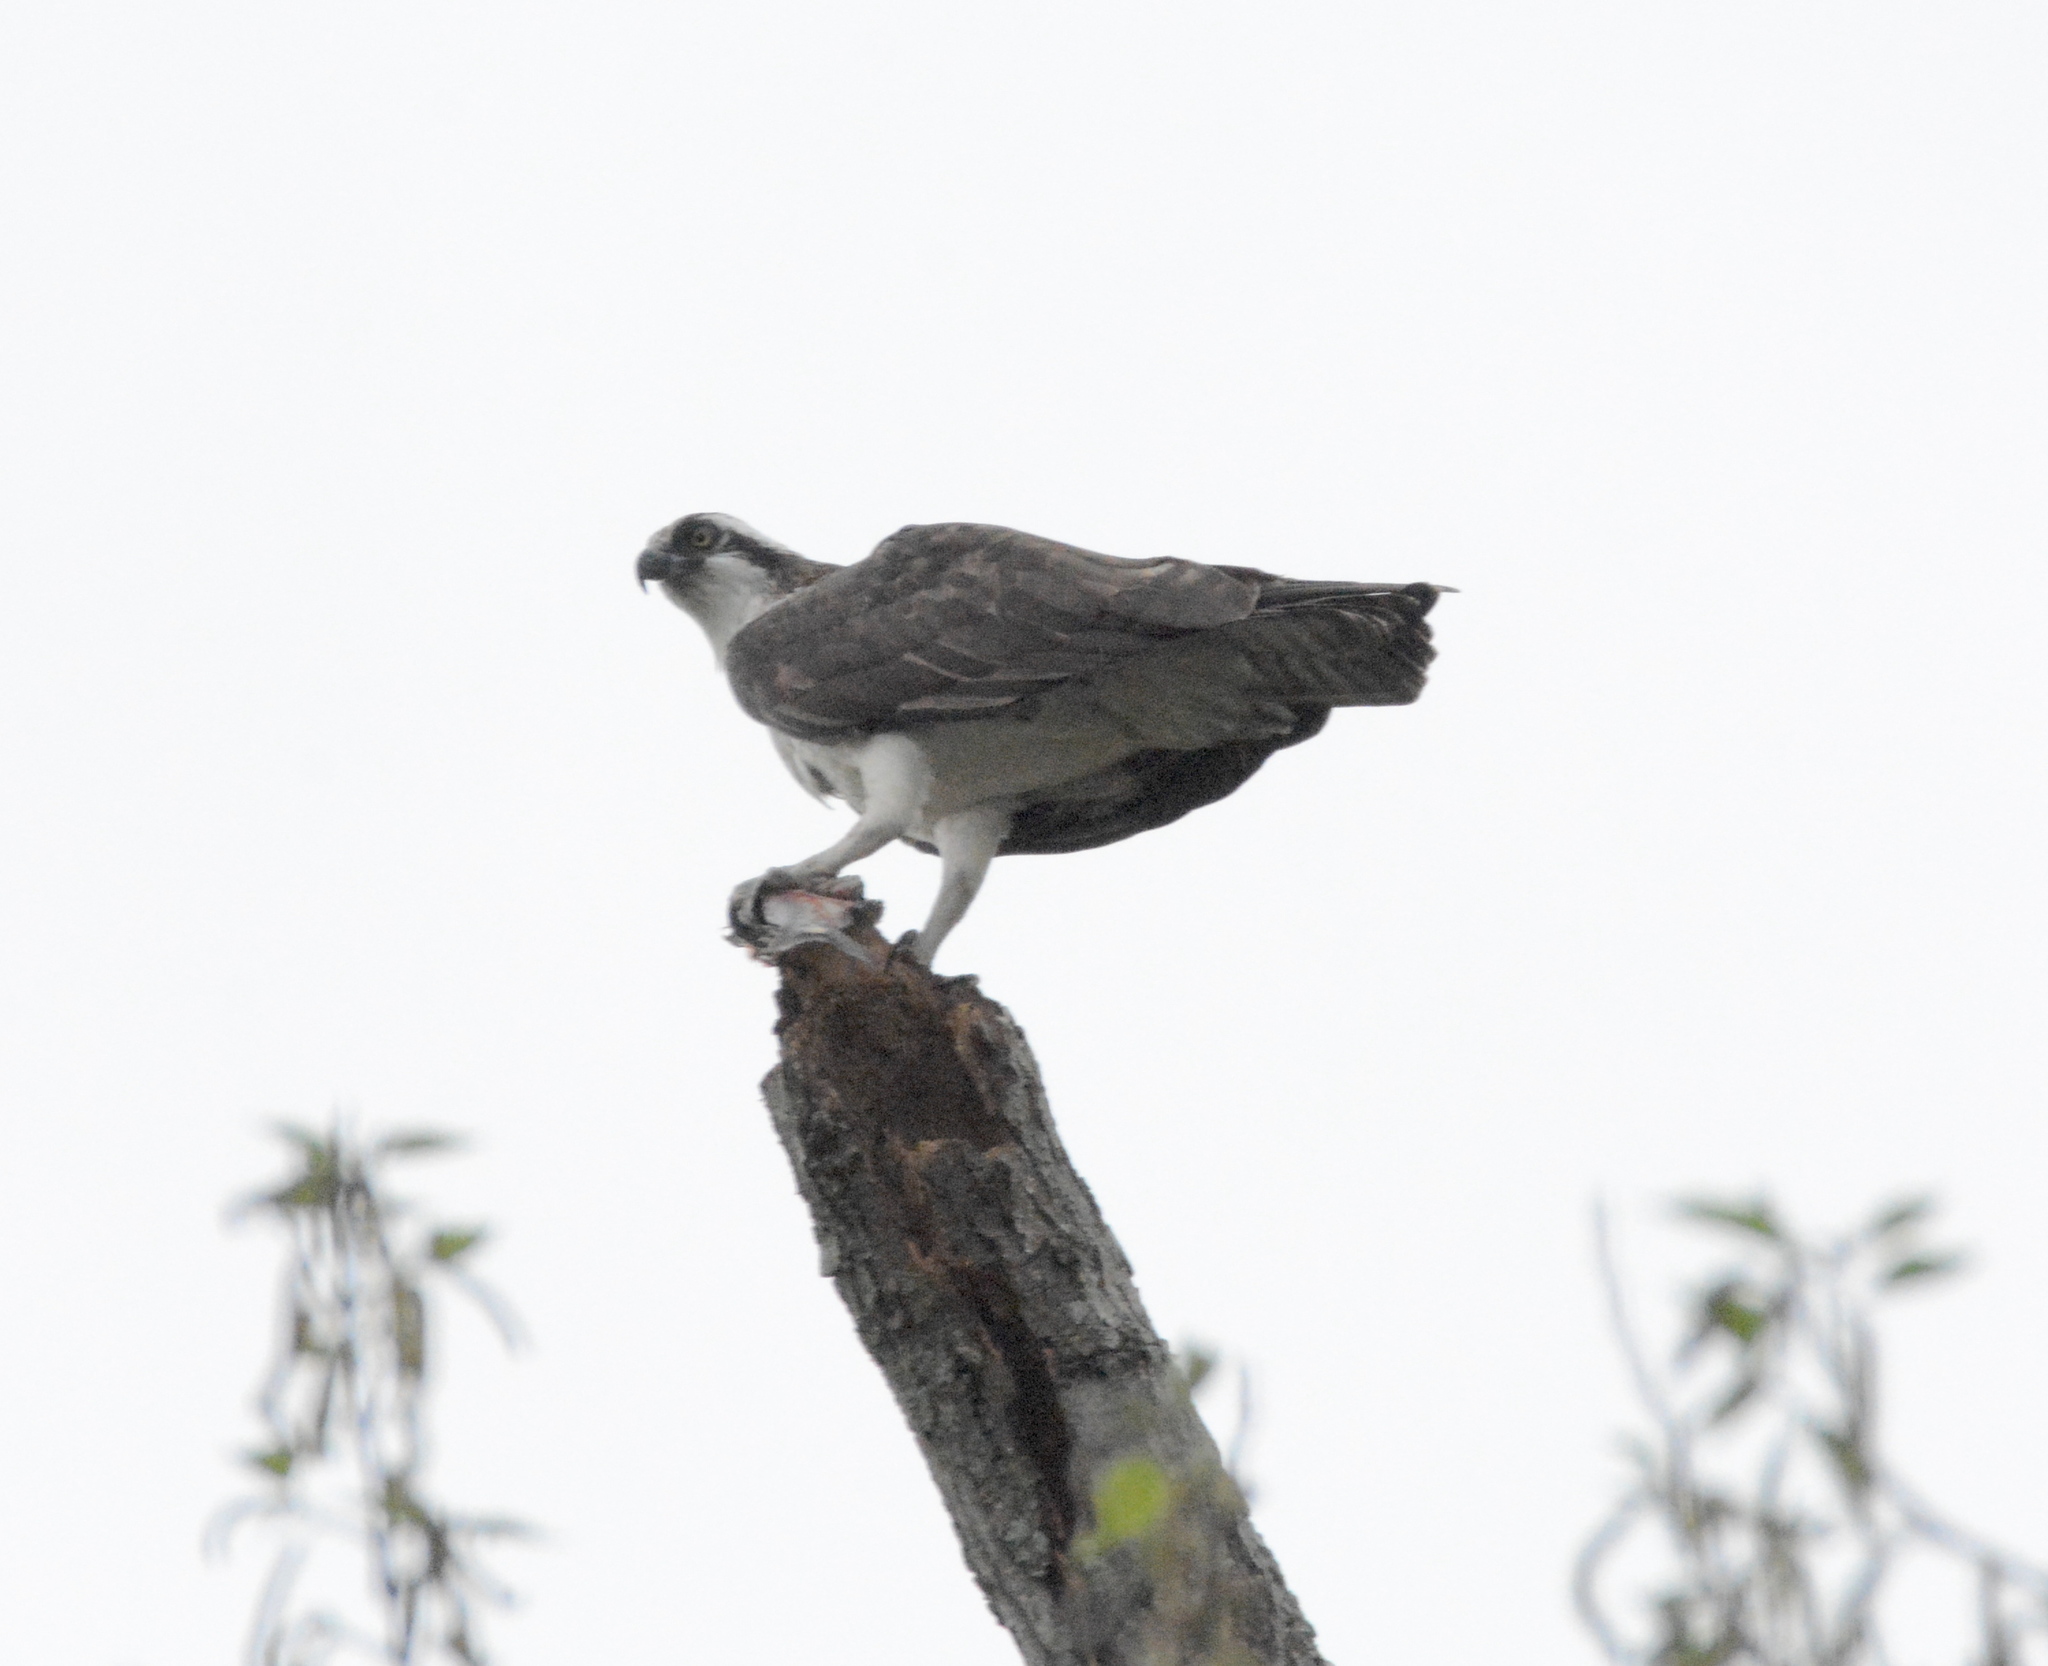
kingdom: Animalia
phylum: Chordata
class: Aves
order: Accipitriformes
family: Pandionidae
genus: Pandion
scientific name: Pandion haliaetus
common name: Osprey
